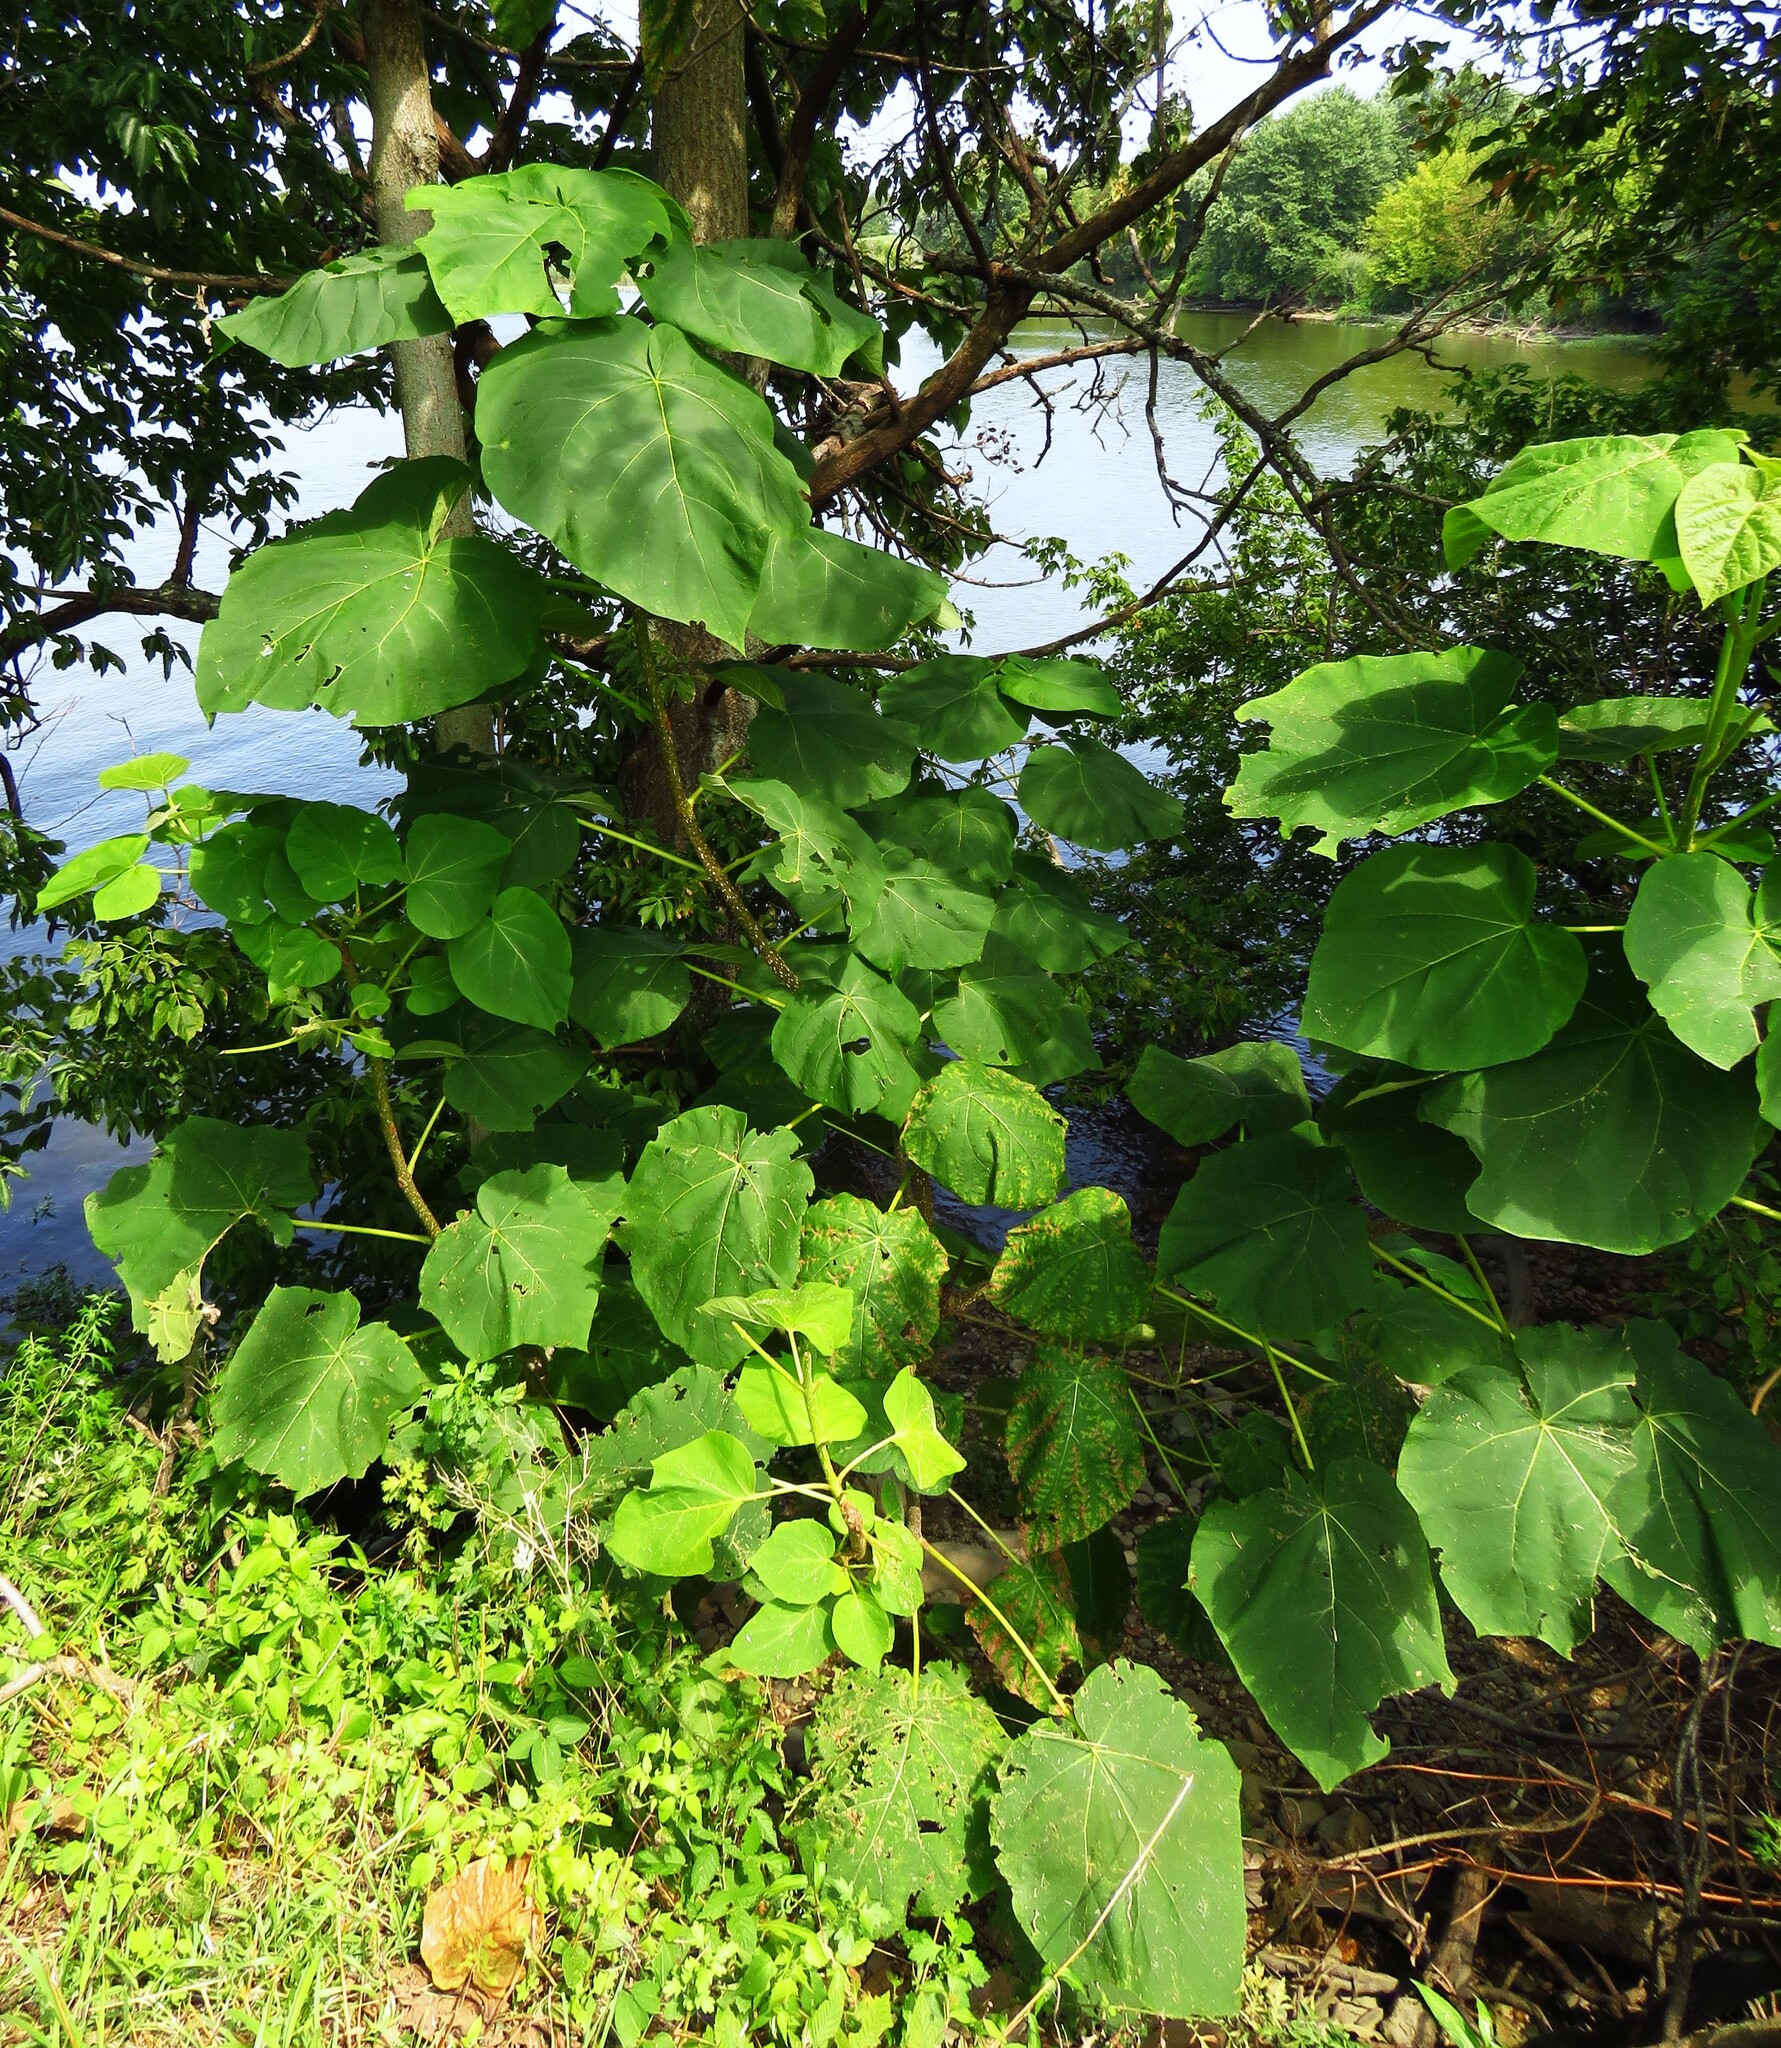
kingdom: Plantae
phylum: Tracheophyta
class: Magnoliopsida
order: Lamiales
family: Paulowniaceae
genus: Paulownia
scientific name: Paulownia tomentosa
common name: Foxglove-tree
